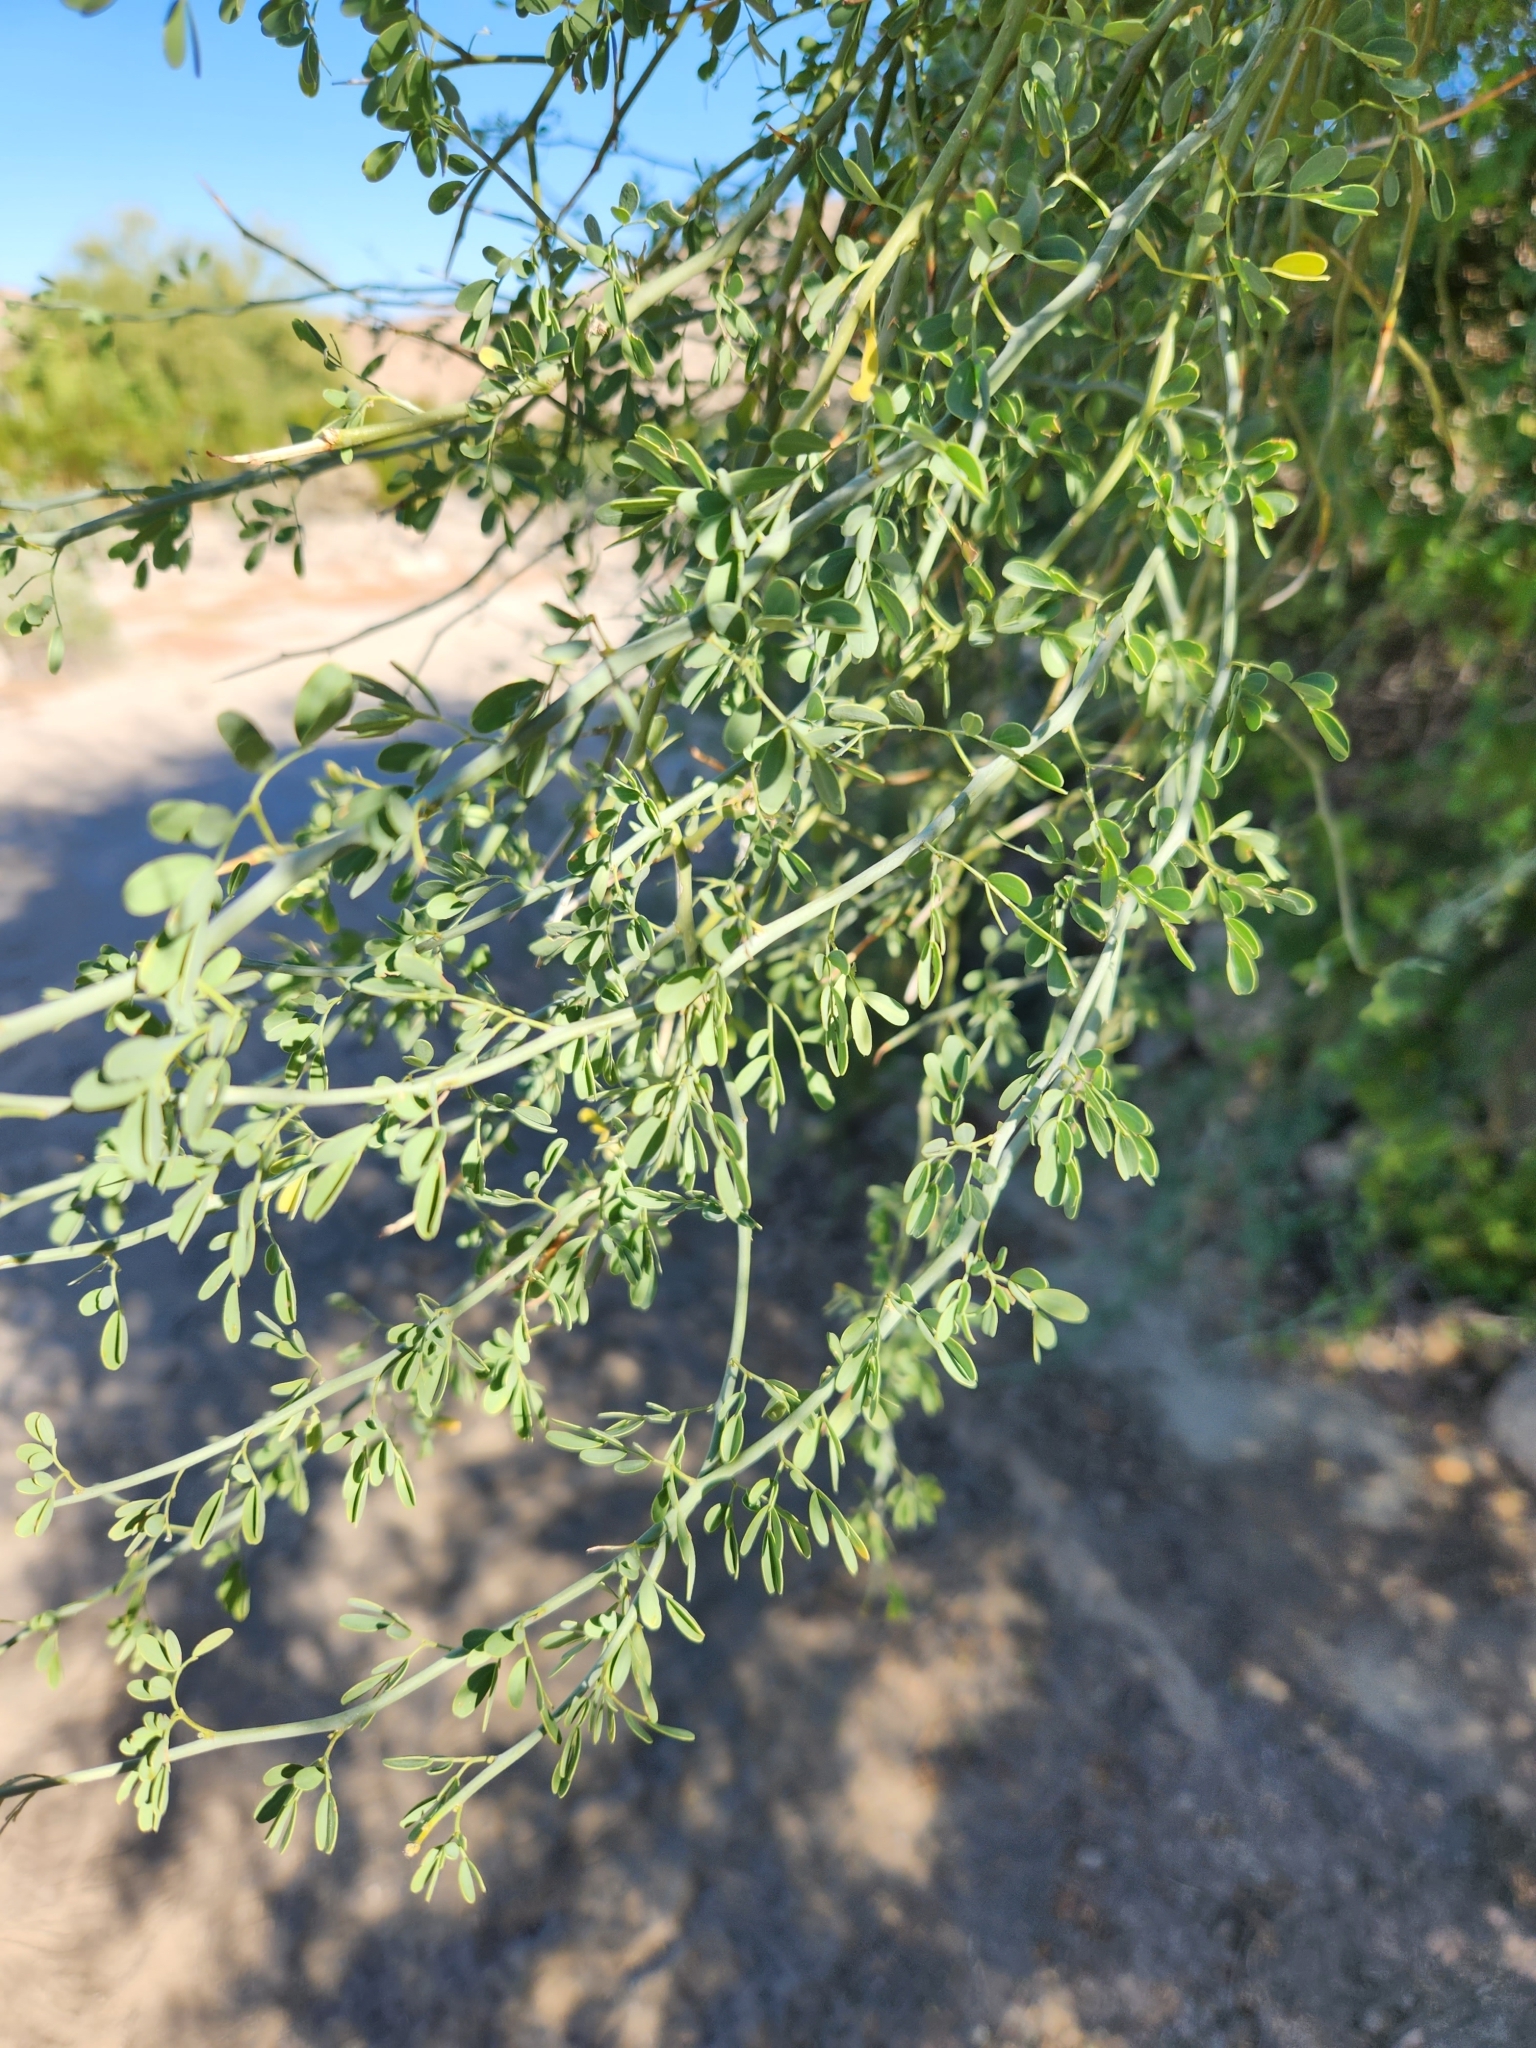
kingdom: Plantae
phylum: Tracheophyta
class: Magnoliopsida
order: Fabales
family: Fabaceae
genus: Parkinsonia
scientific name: Parkinsonia florida
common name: Blue paloverde
